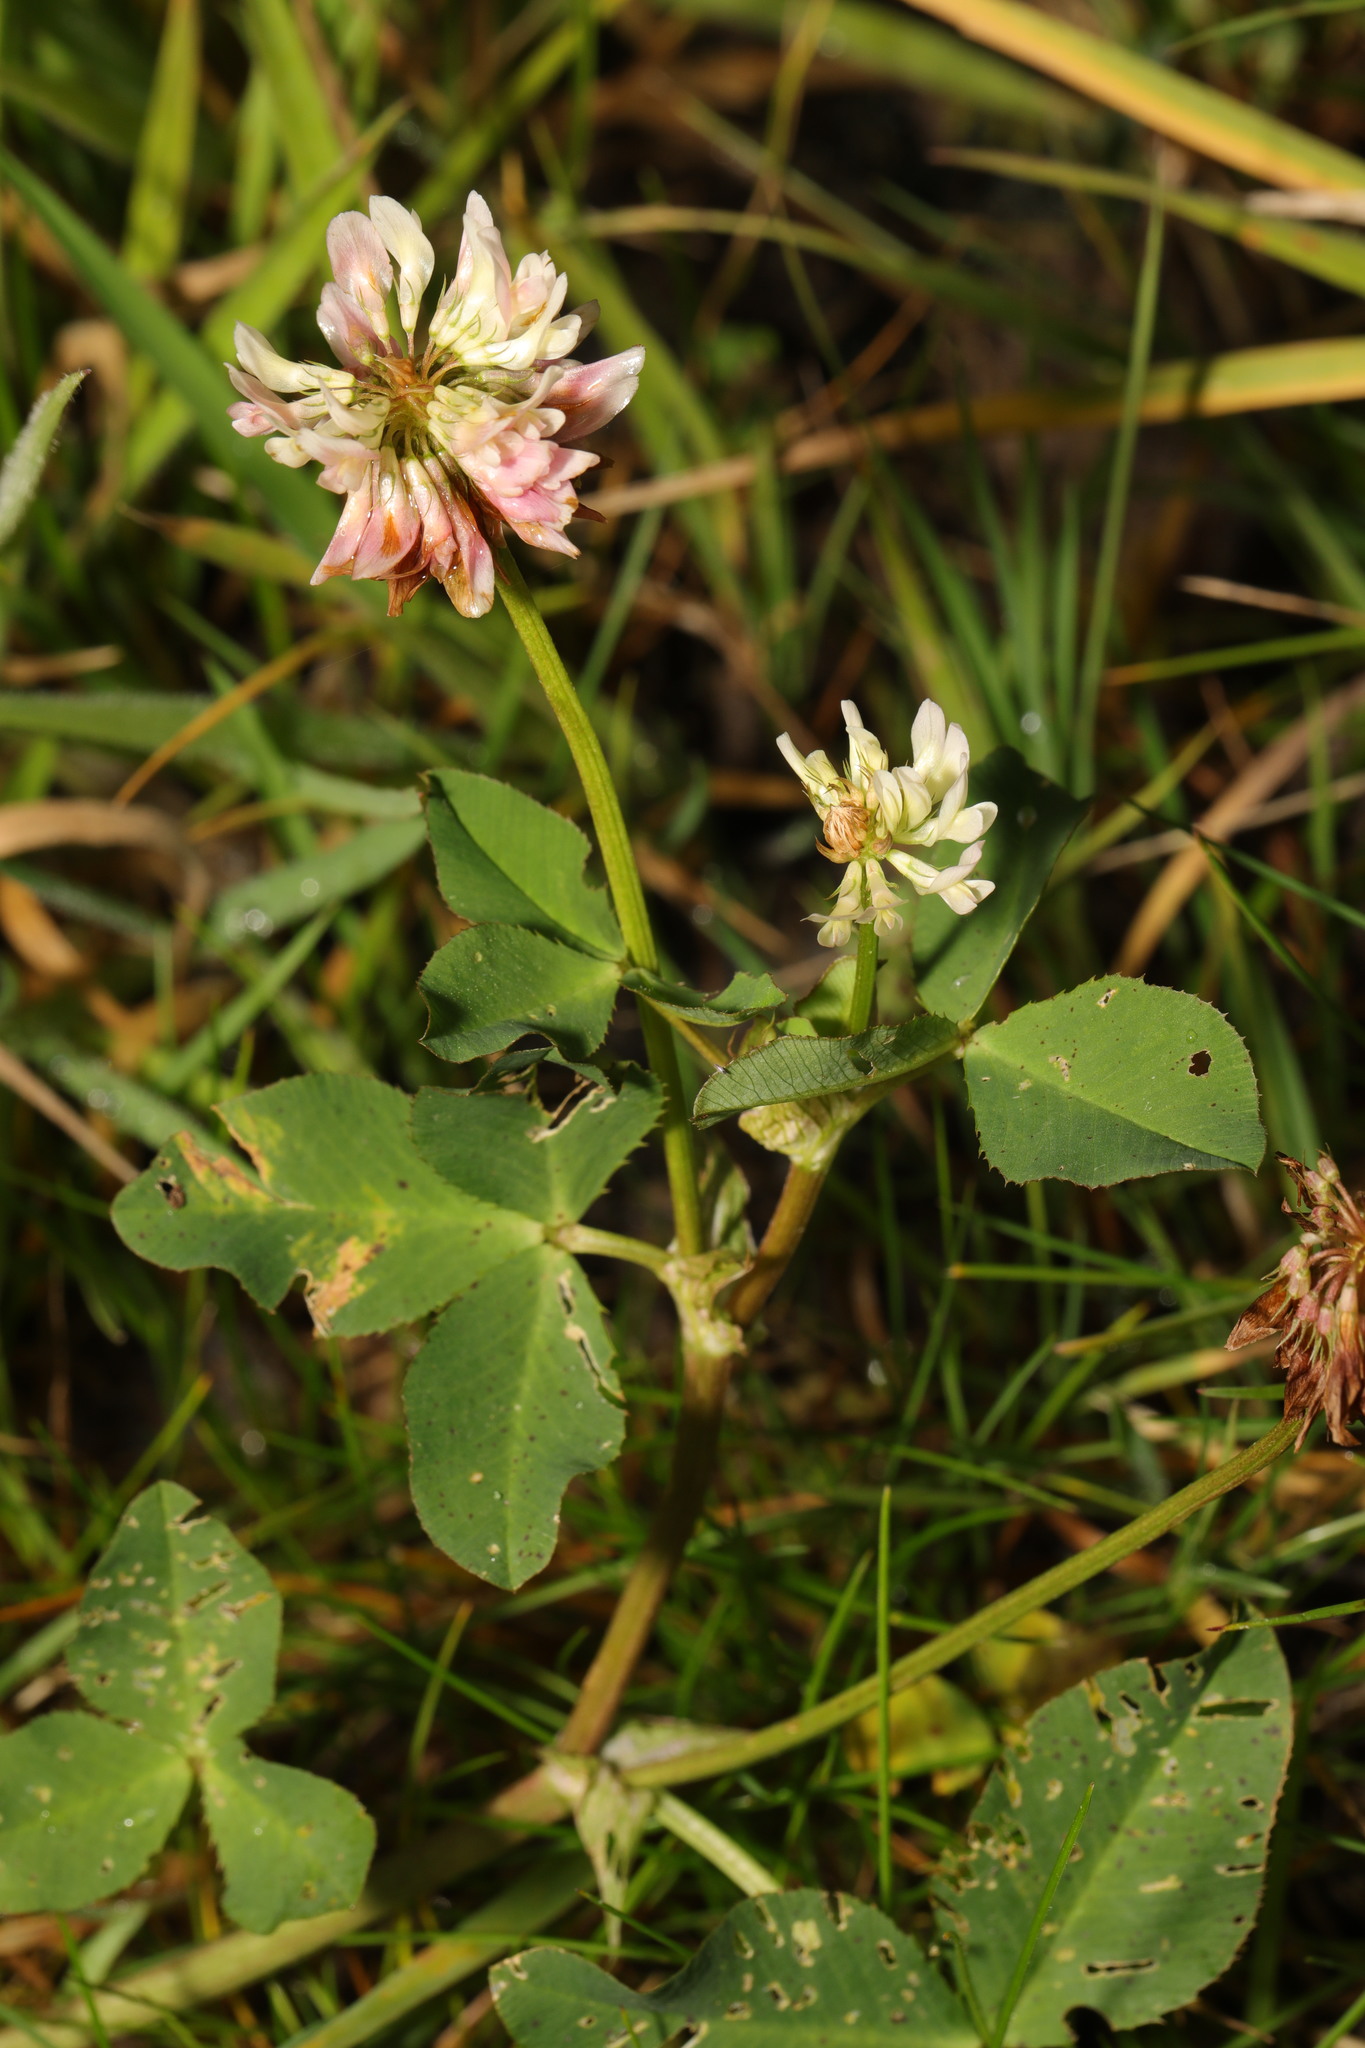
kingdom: Plantae
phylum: Tracheophyta
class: Magnoliopsida
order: Fabales
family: Fabaceae
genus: Trifolium
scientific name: Trifolium hybridum
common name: Alsike clover
